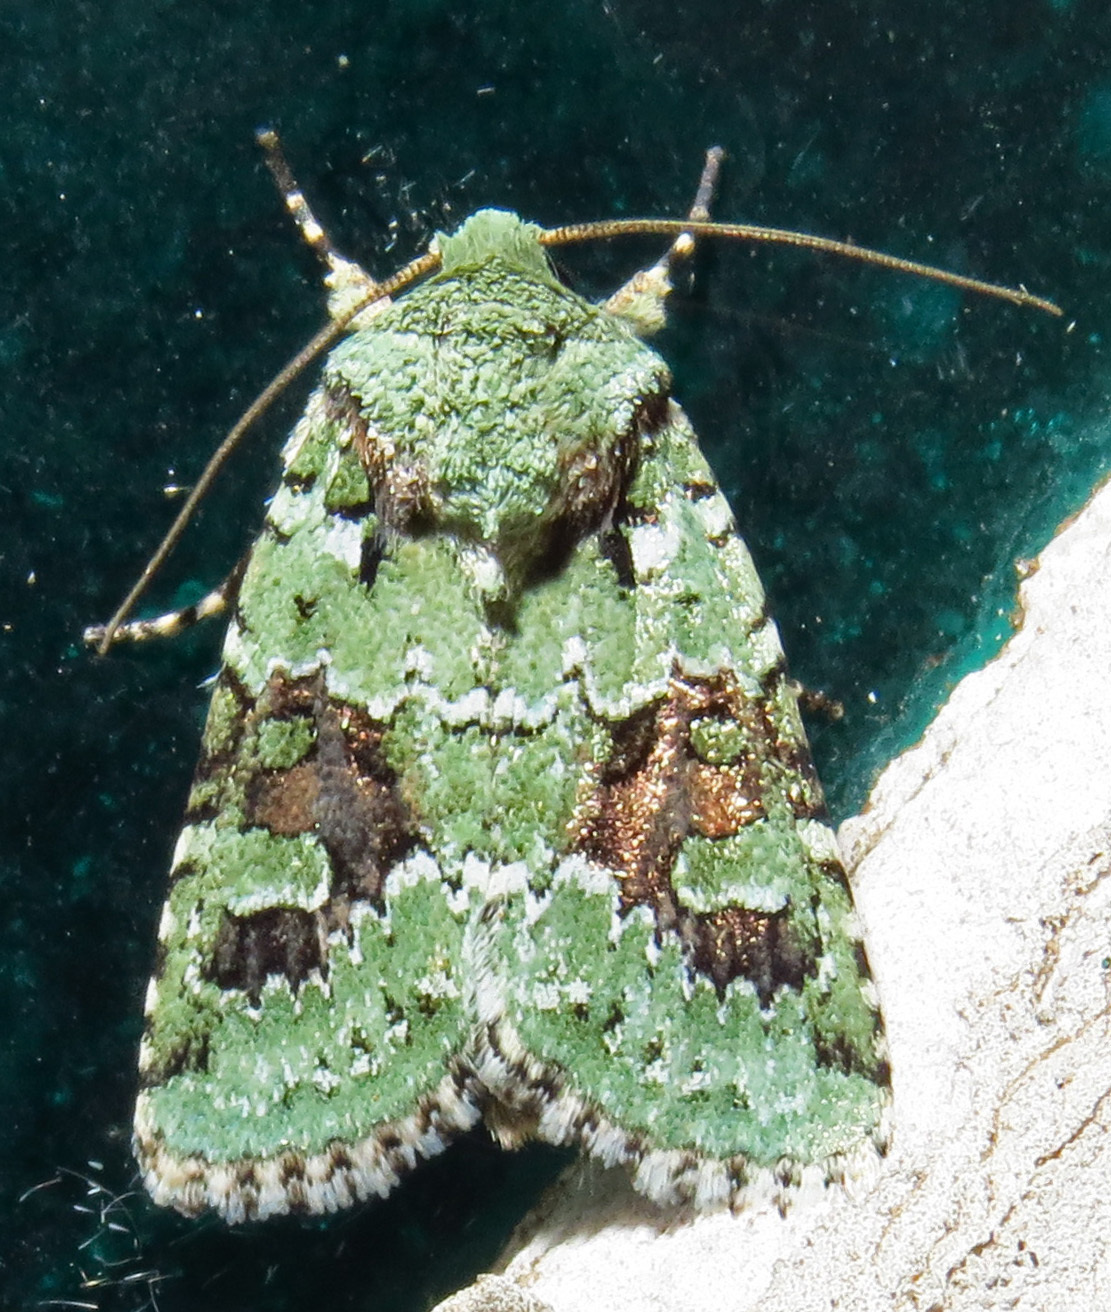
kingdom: Animalia
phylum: Arthropoda
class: Insecta
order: Lepidoptera
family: Noctuidae
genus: Lacinipolia
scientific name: Lacinipolia laudabilis
